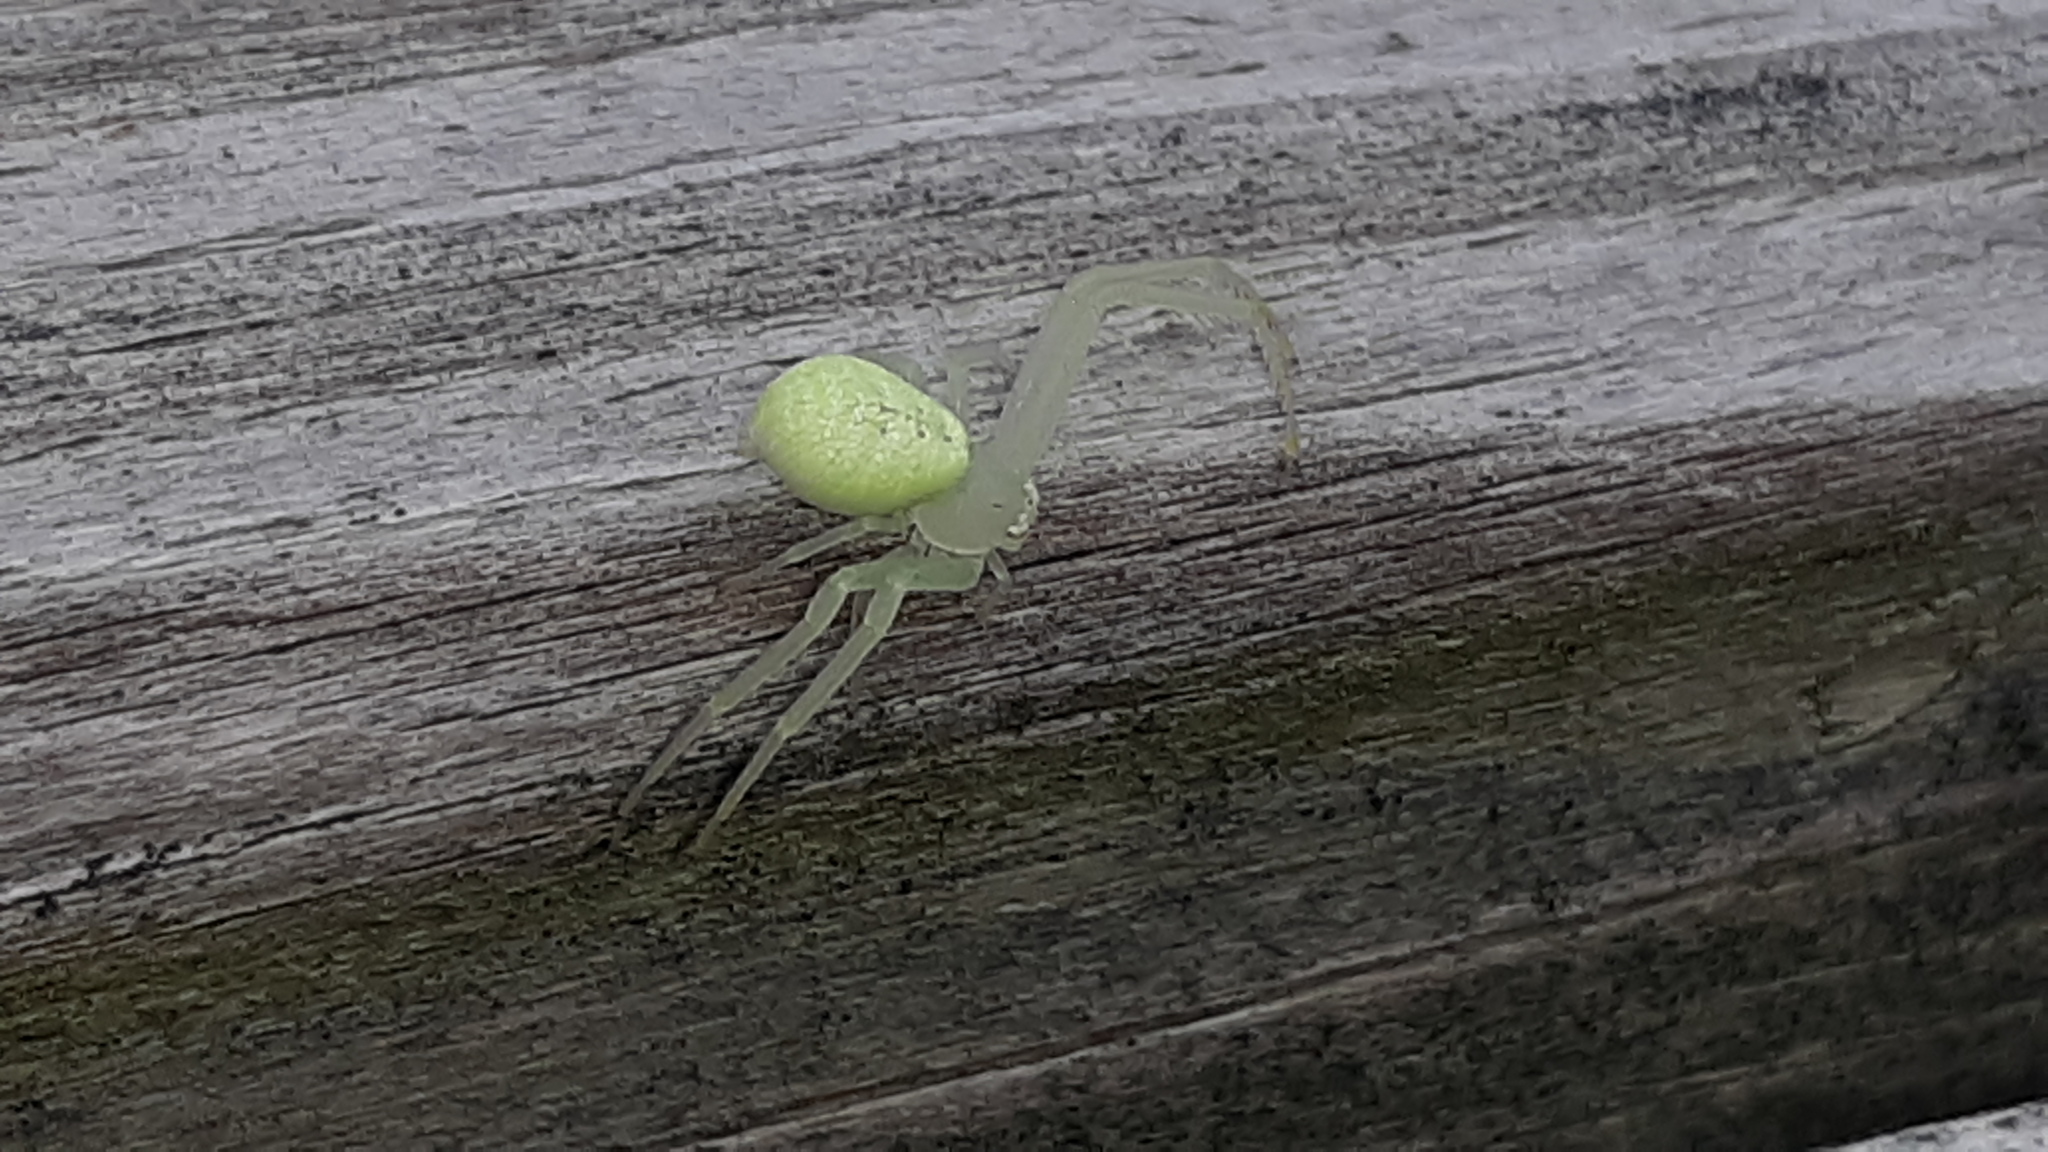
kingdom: Animalia
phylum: Arthropoda
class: Arachnida
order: Araneae
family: Thomisidae
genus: Misumessus
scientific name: Misumessus oblongus
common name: American green crab spider
